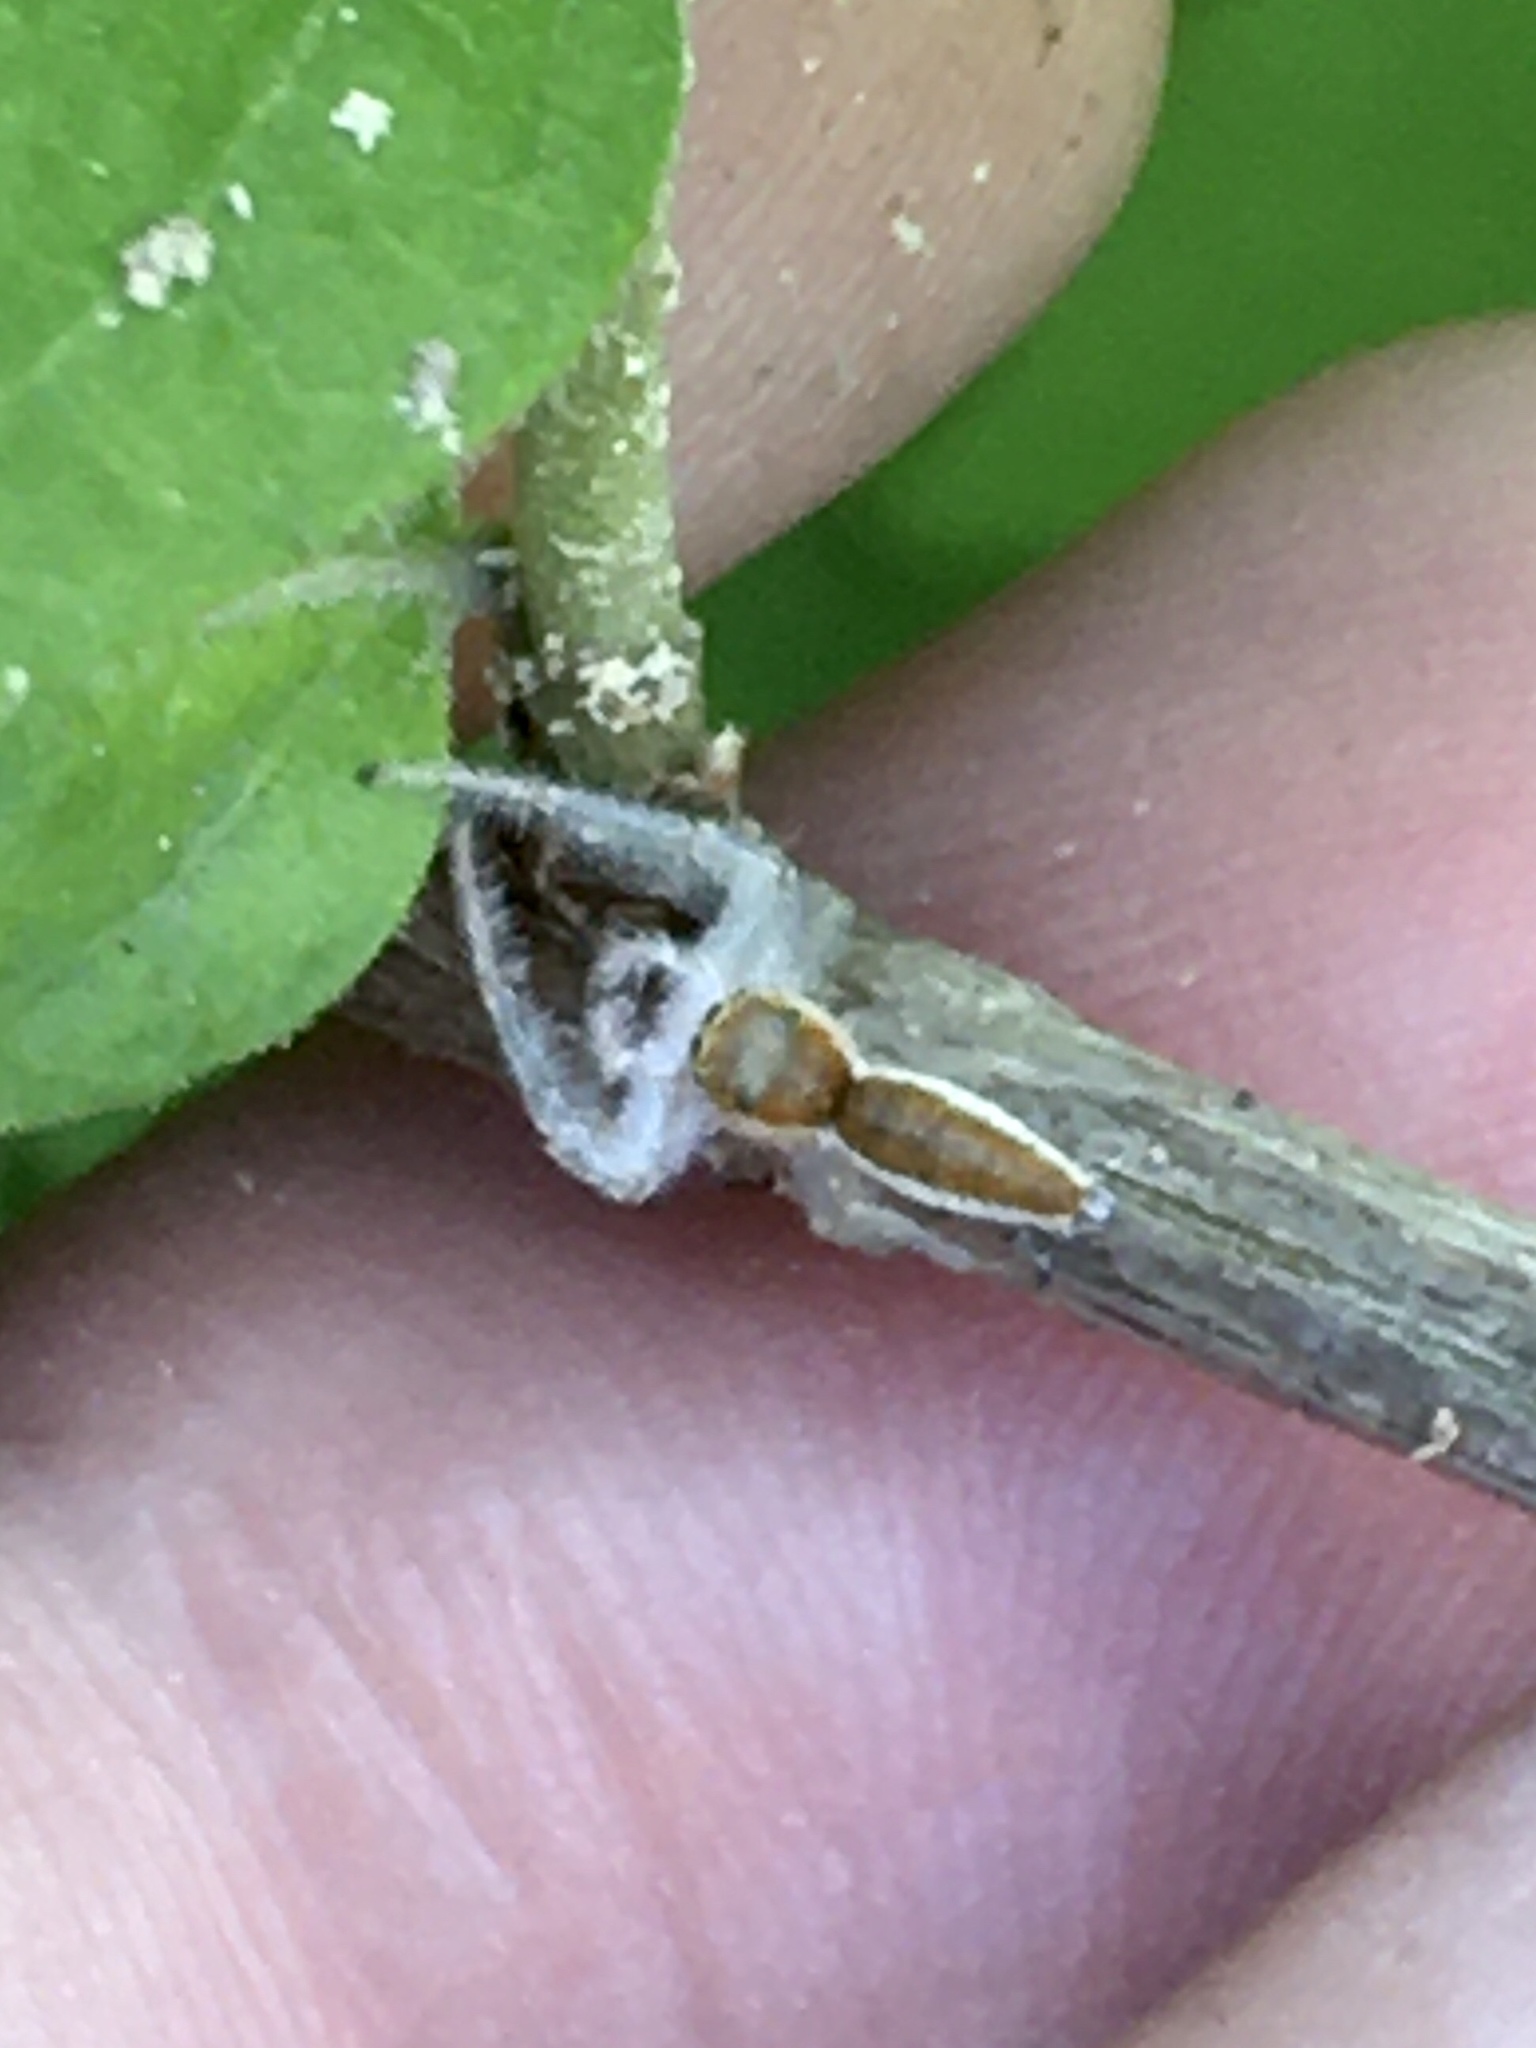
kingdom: Animalia
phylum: Arthropoda
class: Arachnida
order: Araneae
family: Salticidae
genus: Hentzia
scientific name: Hentzia mitrata
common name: White-jawed jumping spider
